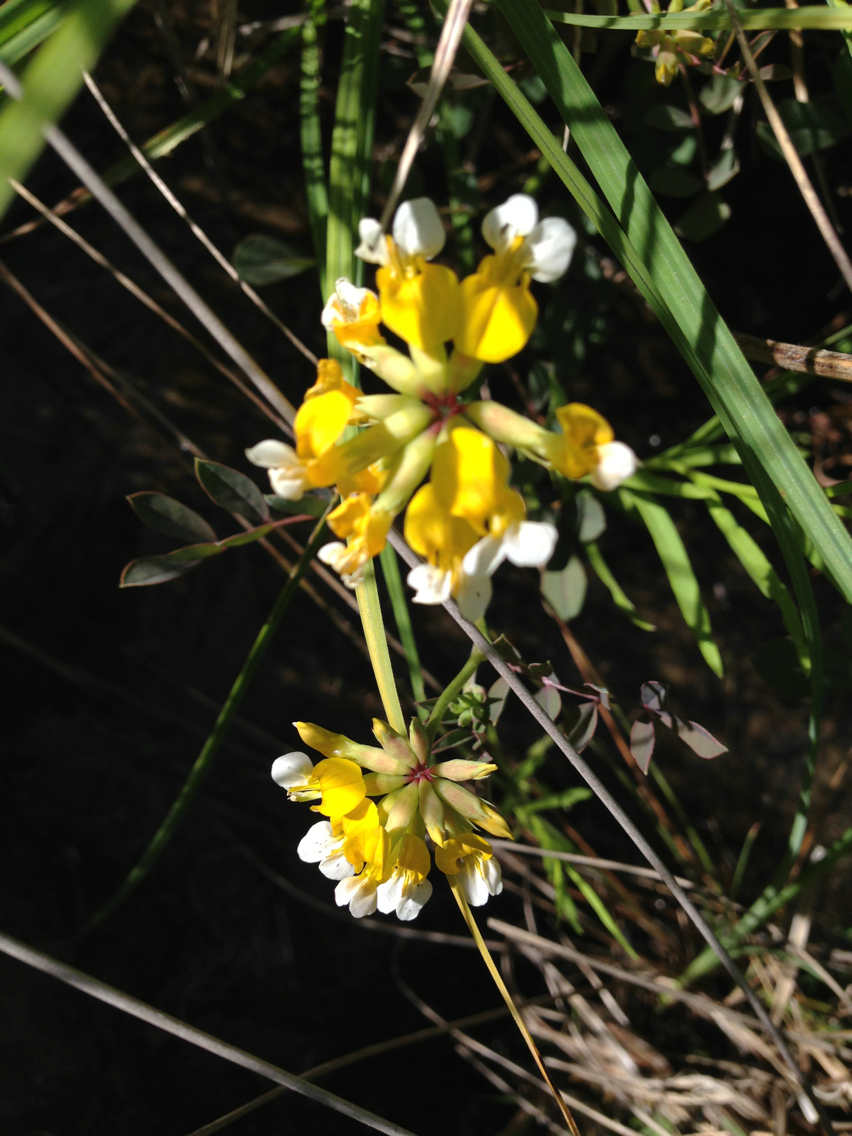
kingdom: Plantae
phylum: Tracheophyta
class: Magnoliopsida
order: Fabales
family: Fabaceae
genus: Hosackia
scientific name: Hosackia pinnata
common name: Bog bird's-foot trefoil
